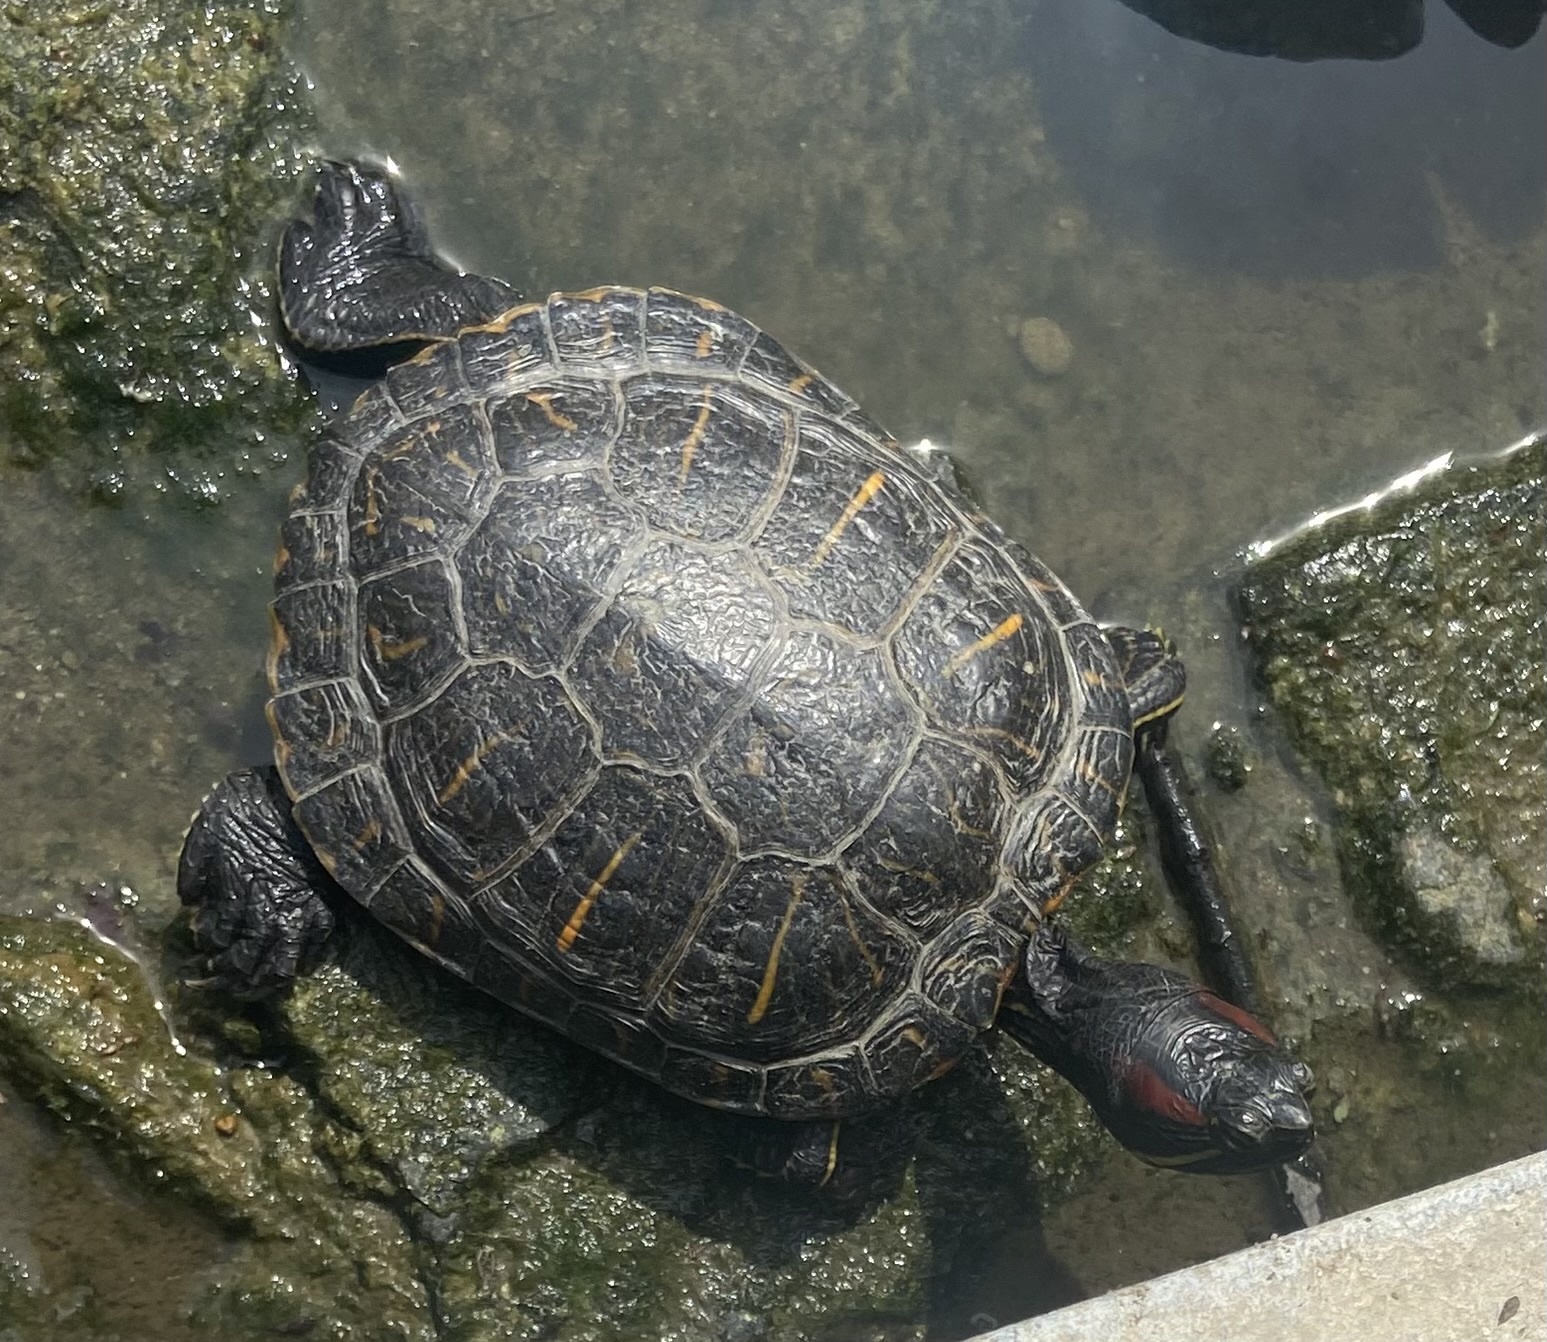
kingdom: Animalia
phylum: Chordata
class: Testudines
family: Emydidae
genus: Trachemys
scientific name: Trachemys scripta
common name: Slider
